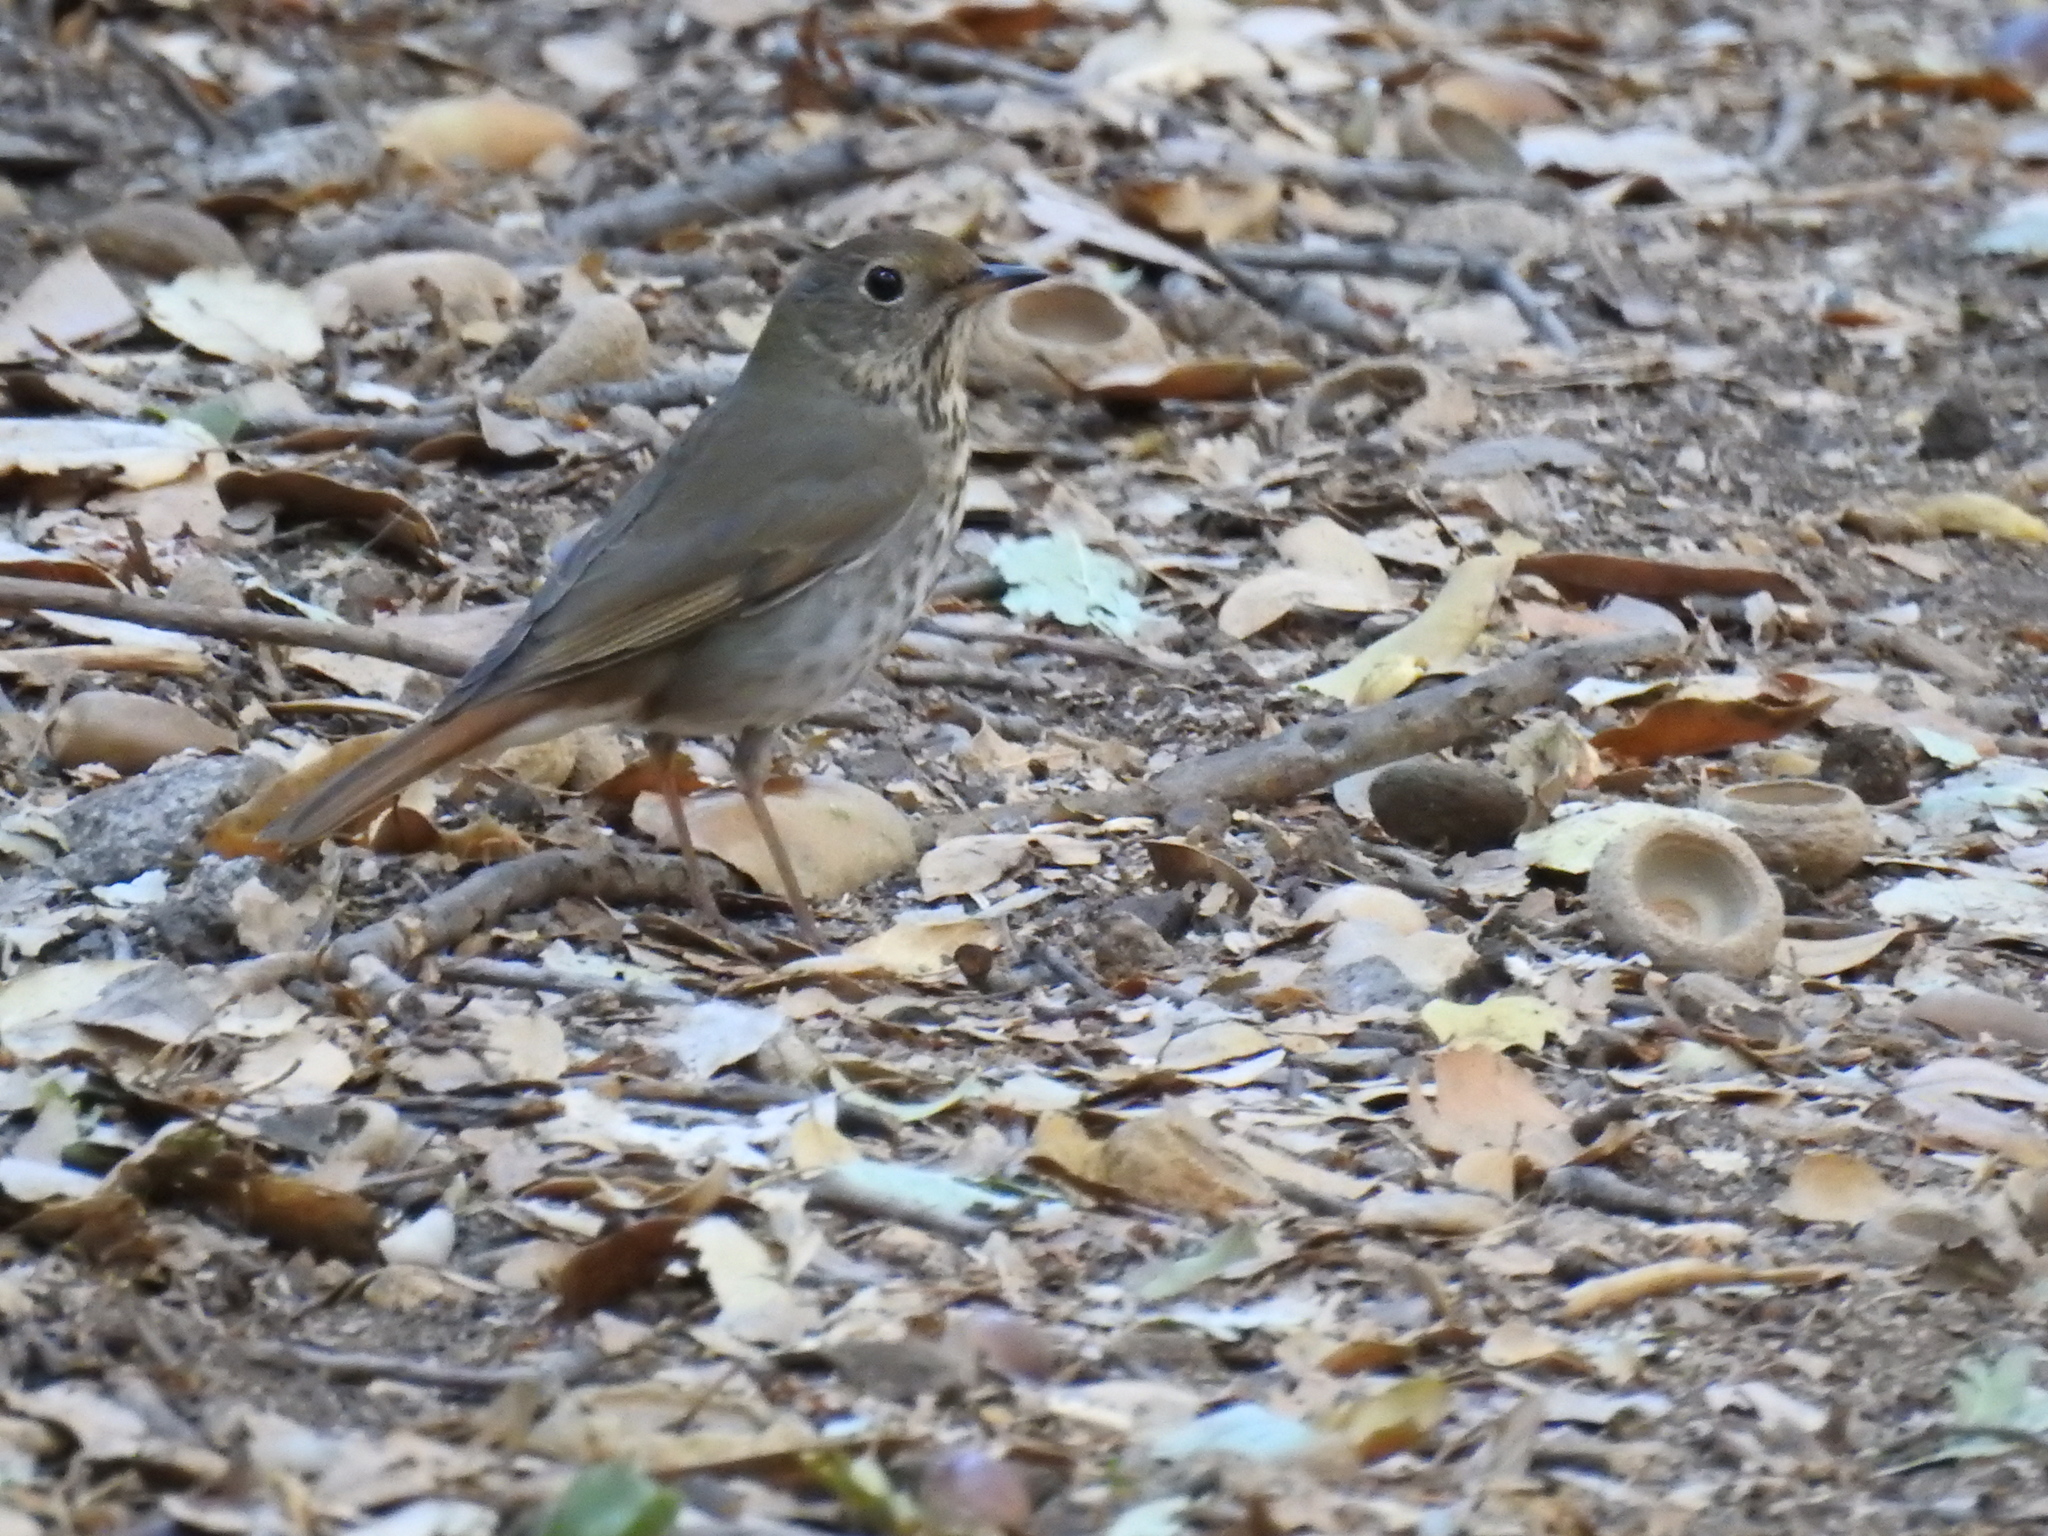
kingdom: Animalia
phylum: Chordata
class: Aves
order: Passeriformes
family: Turdidae
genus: Catharus
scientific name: Catharus guttatus
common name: Hermit thrush
